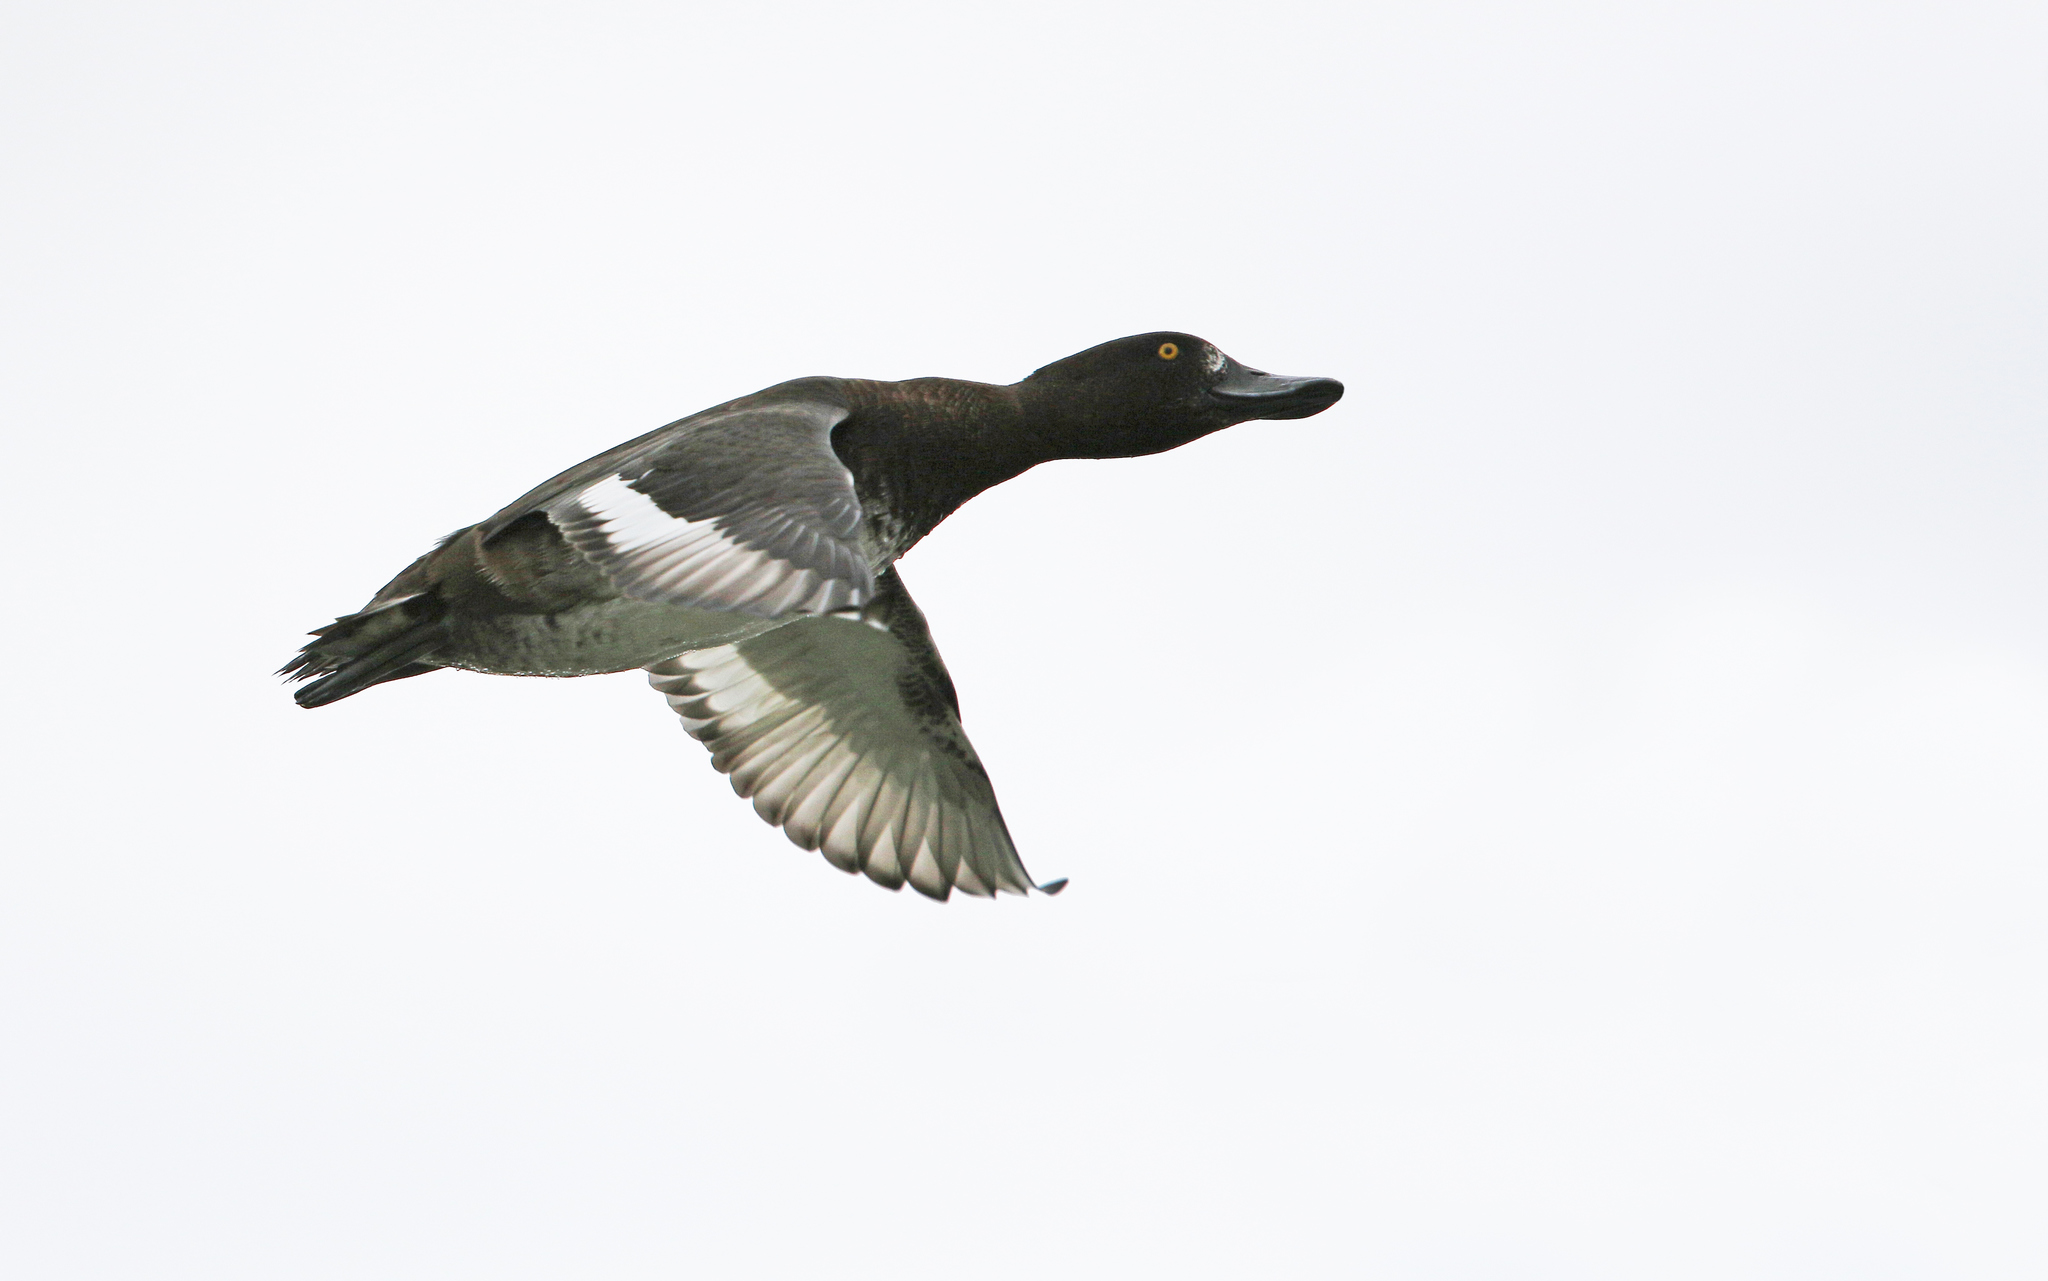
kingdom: Animalia
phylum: Chordata
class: Aves
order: Anseriformes
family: Anatidae
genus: Aythya
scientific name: Aythya fuligula
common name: Tufted duck
